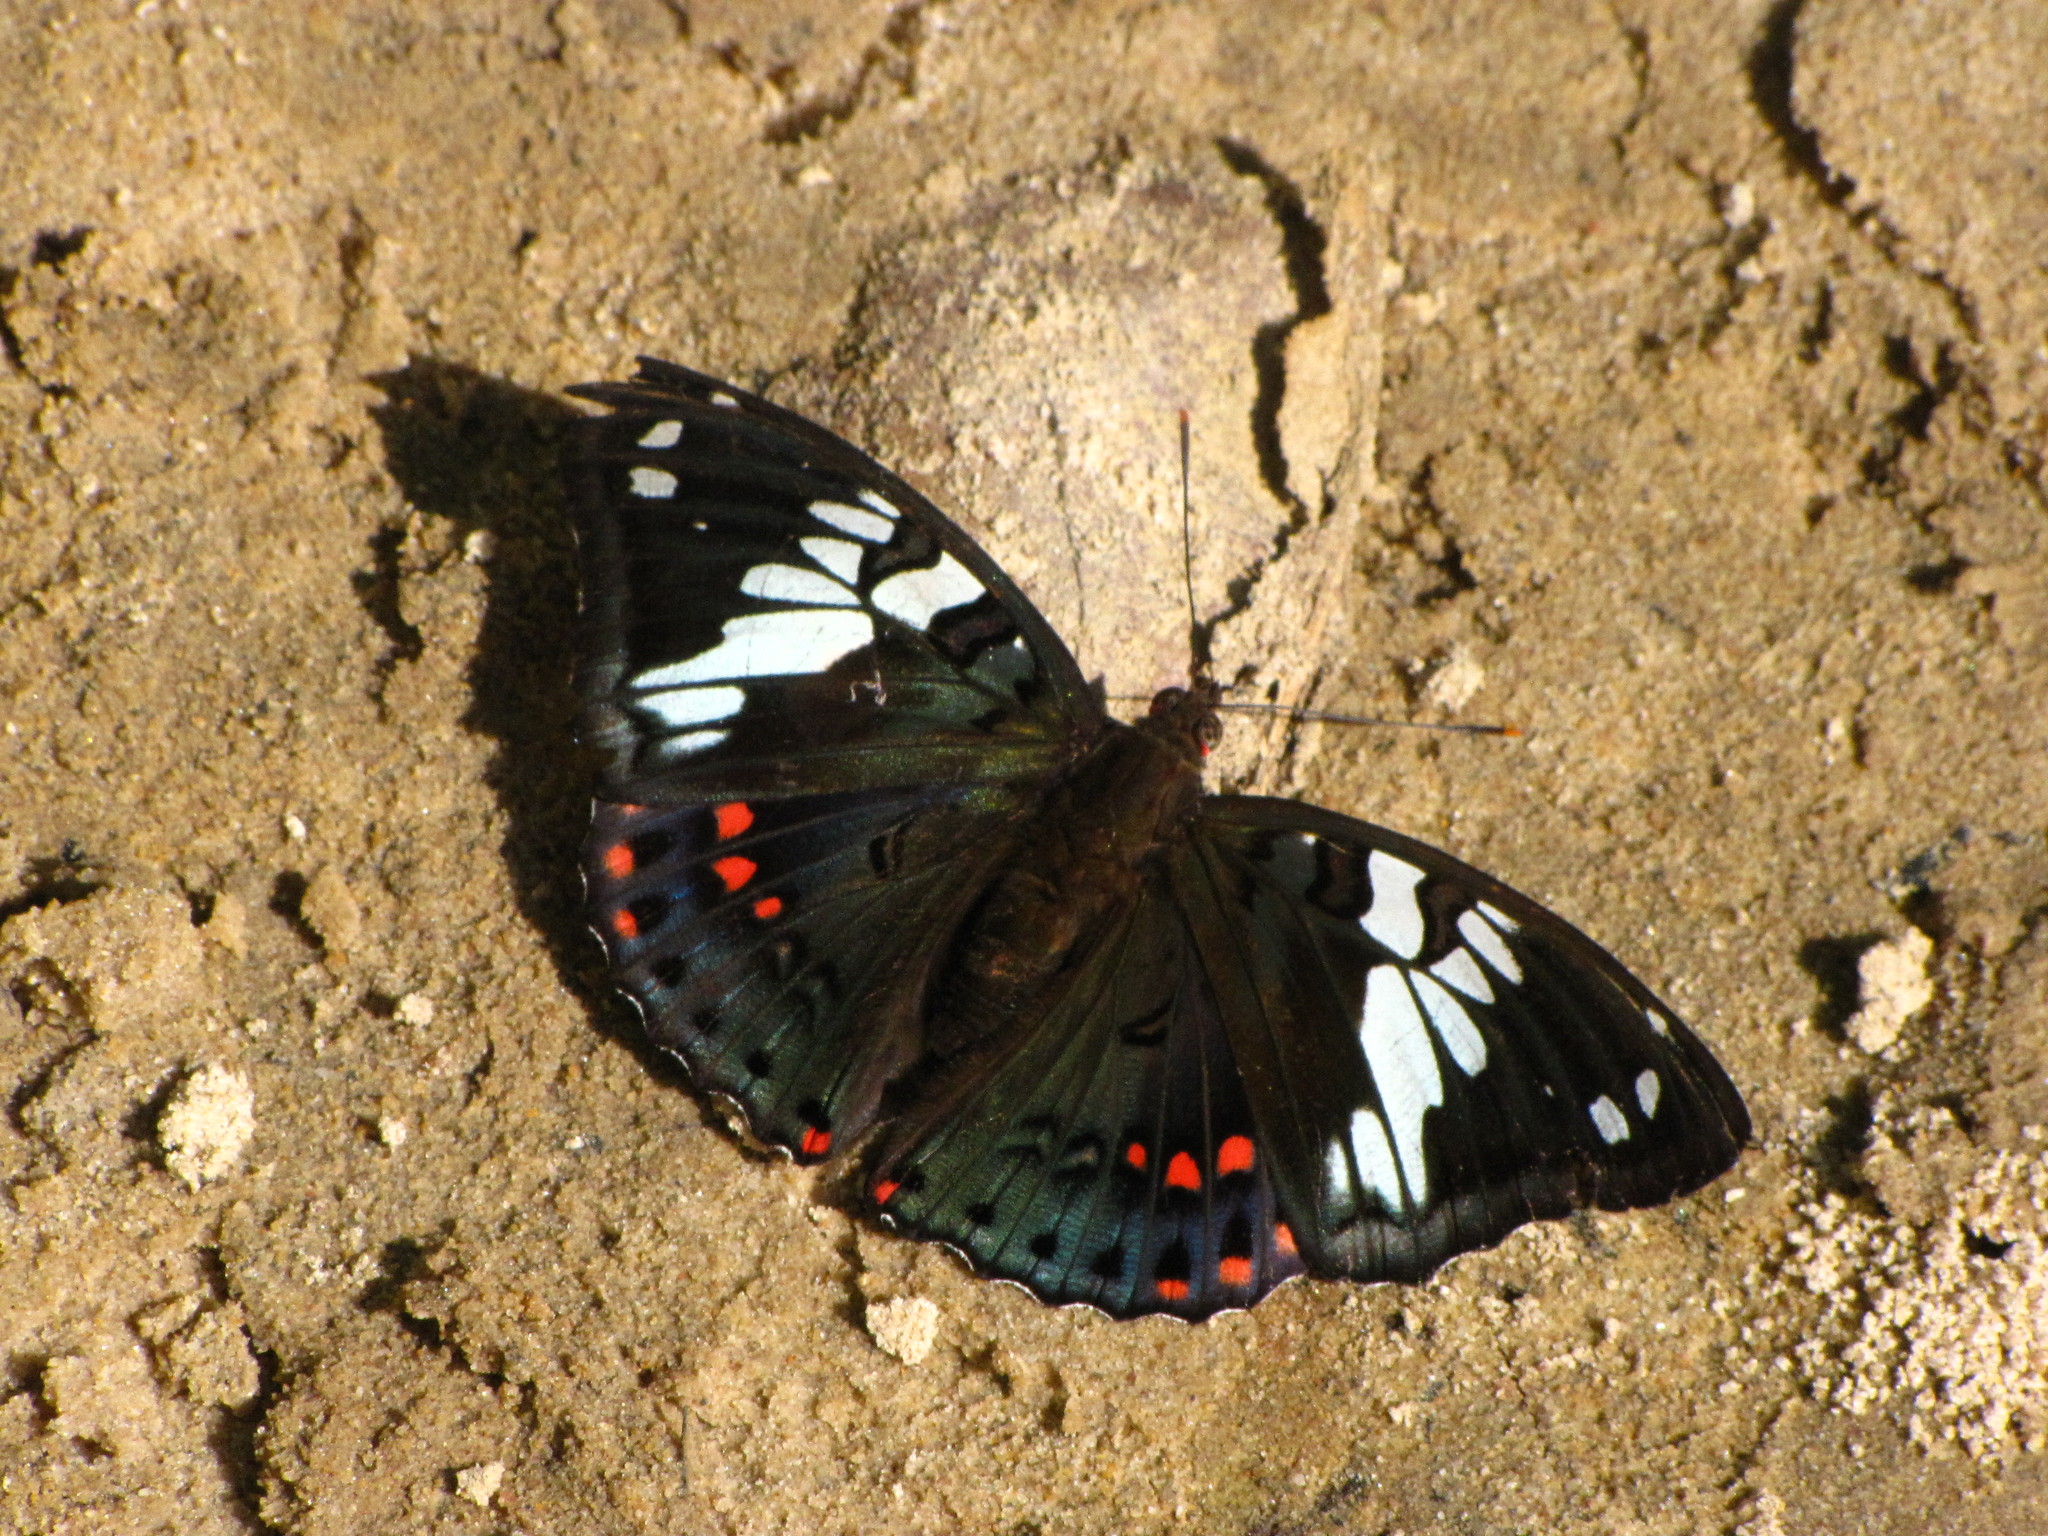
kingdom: Animalia
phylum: Arthropoda
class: Insecta
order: Lepidoptera
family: Nymphalidae
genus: Euthalia
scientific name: Euthalia lubentina
